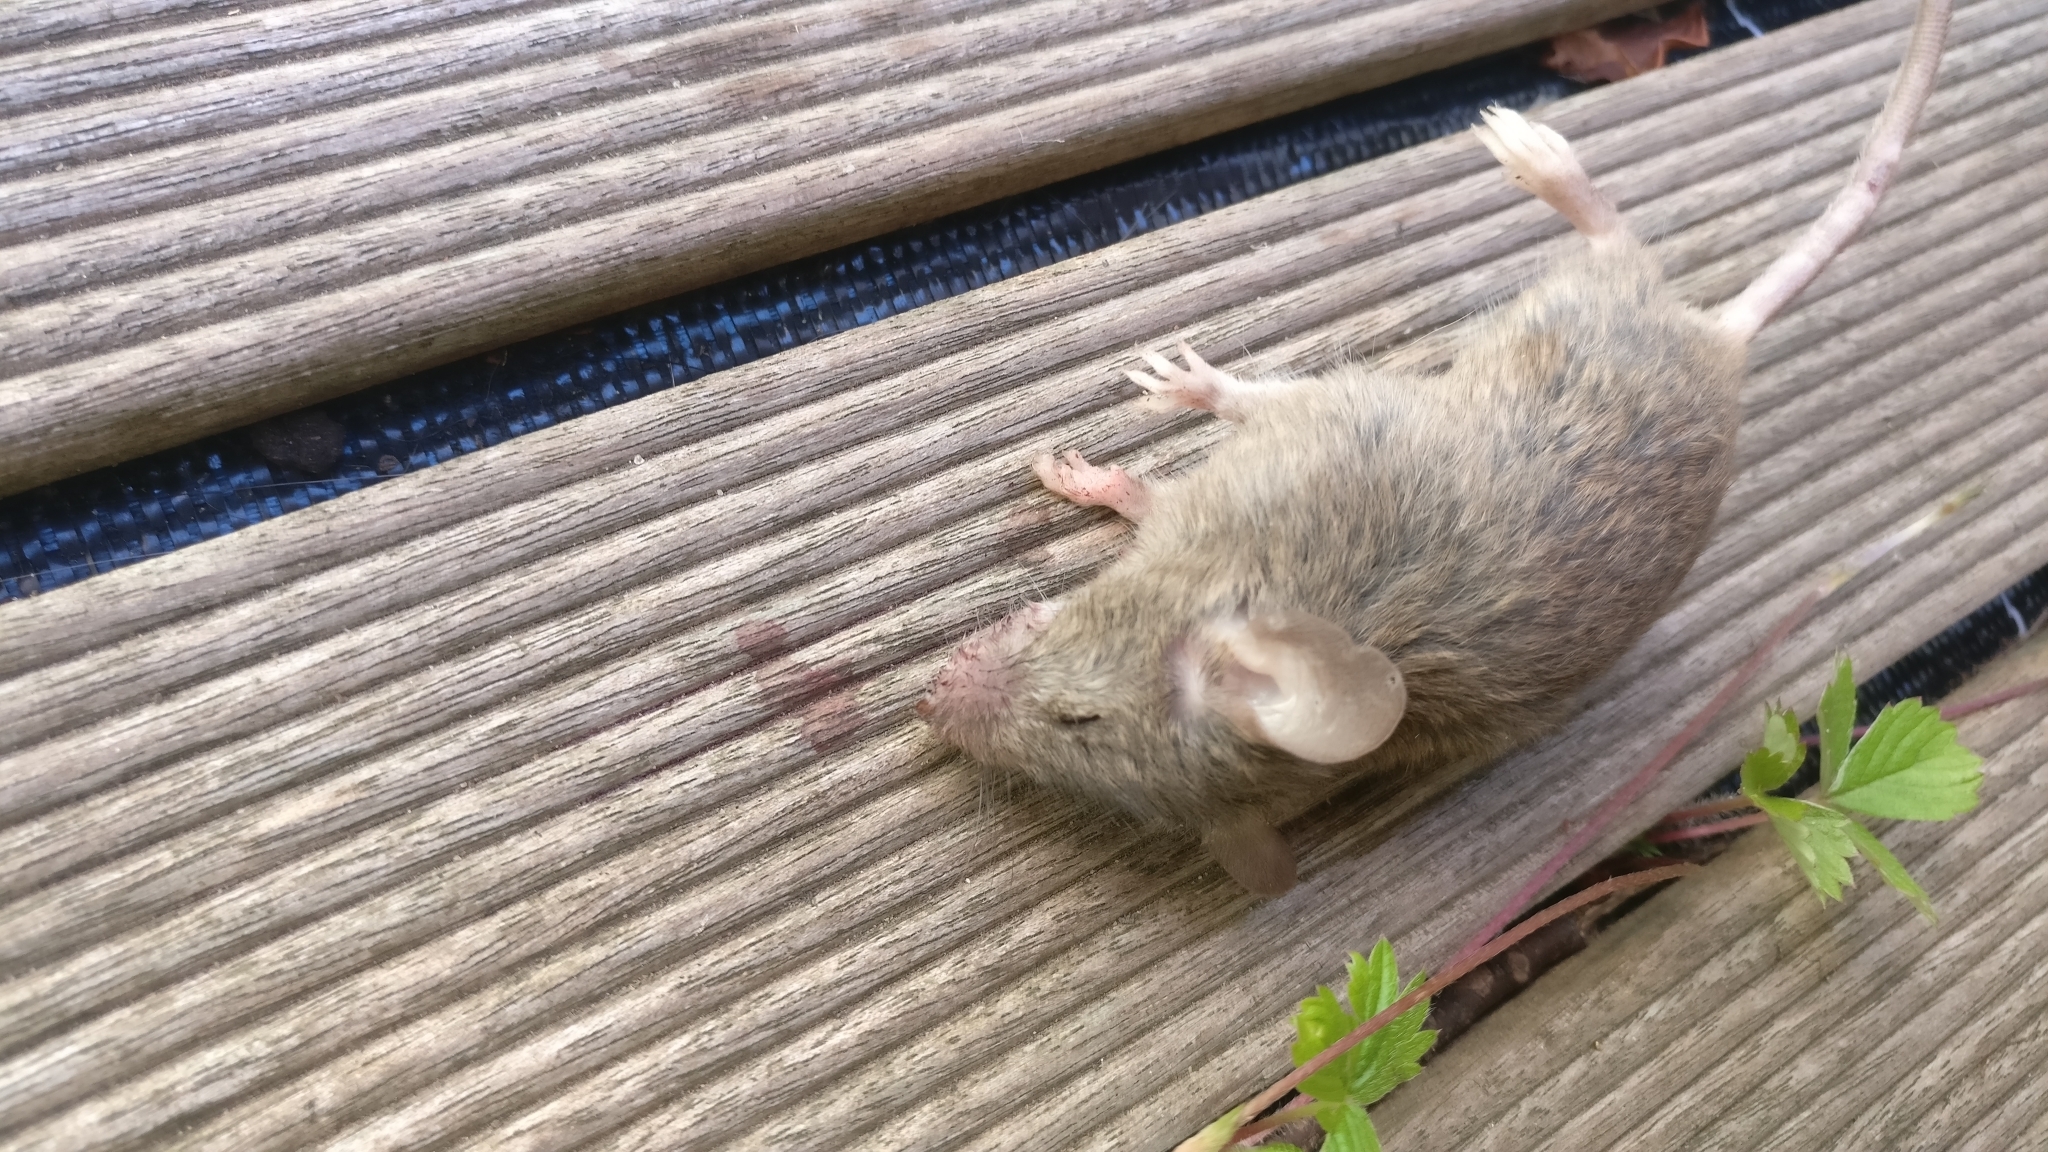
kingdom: Animalia
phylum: Chordata
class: Mammalia
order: Rodentia
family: Muridae
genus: Mus
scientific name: Mus musculus
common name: House mouse
